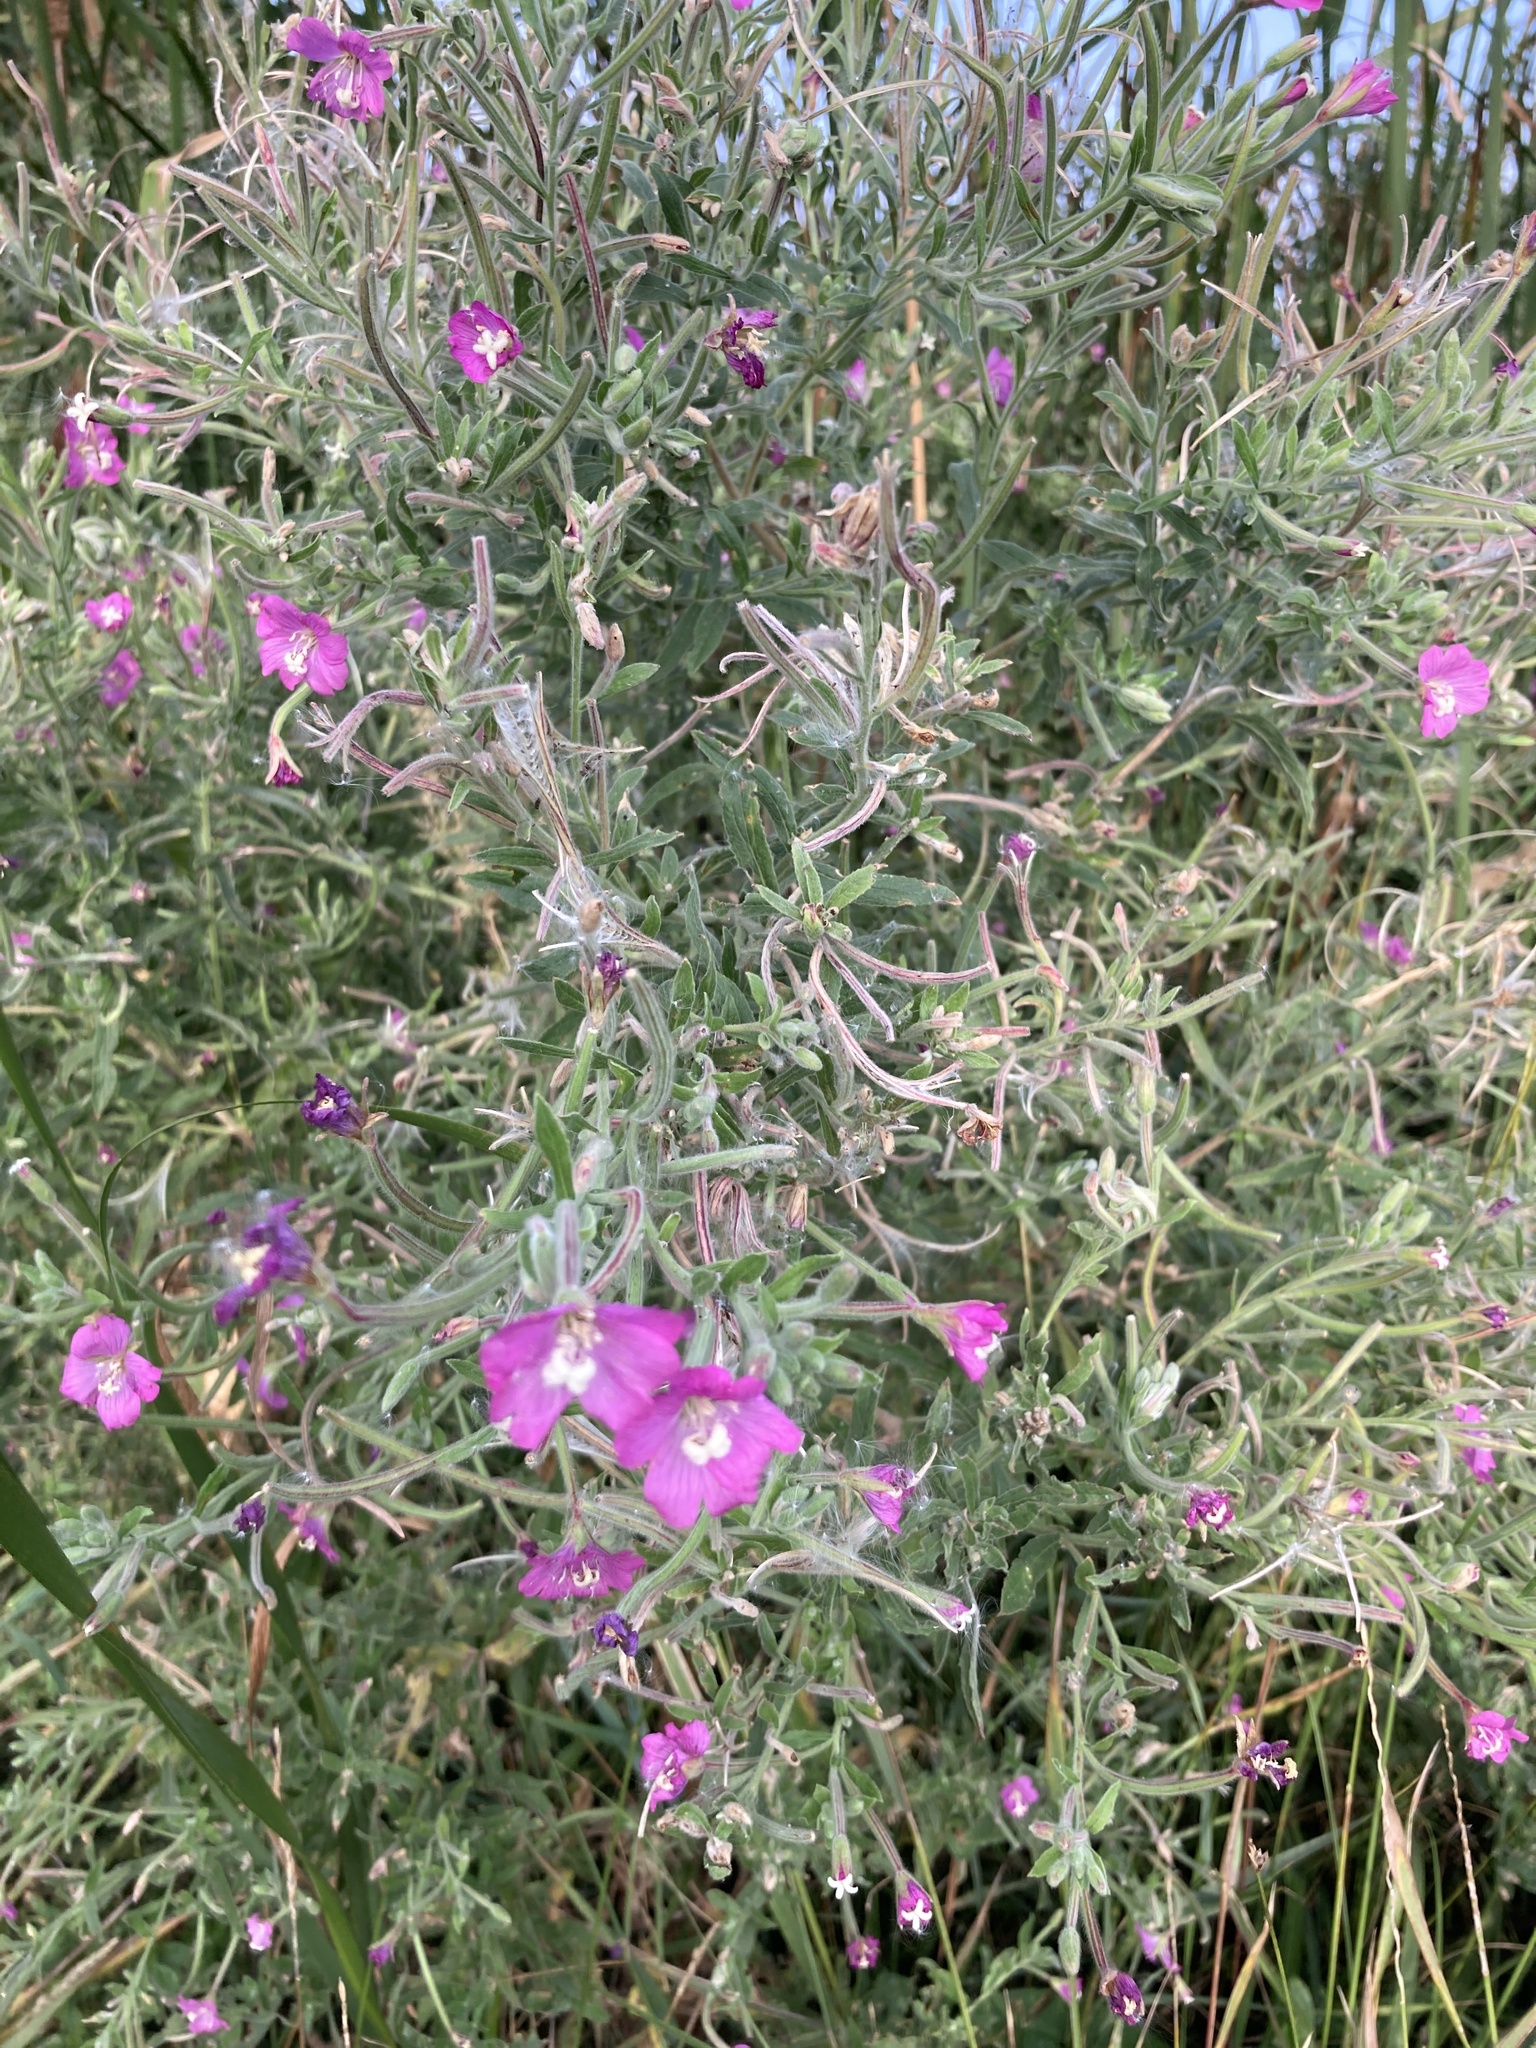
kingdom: Plantae
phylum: Tracheophyta
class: Magnoliopsida
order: Myrtales
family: Onagraceae
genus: Epilobium
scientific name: Epilobium hirsutum
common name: Great willowherb
